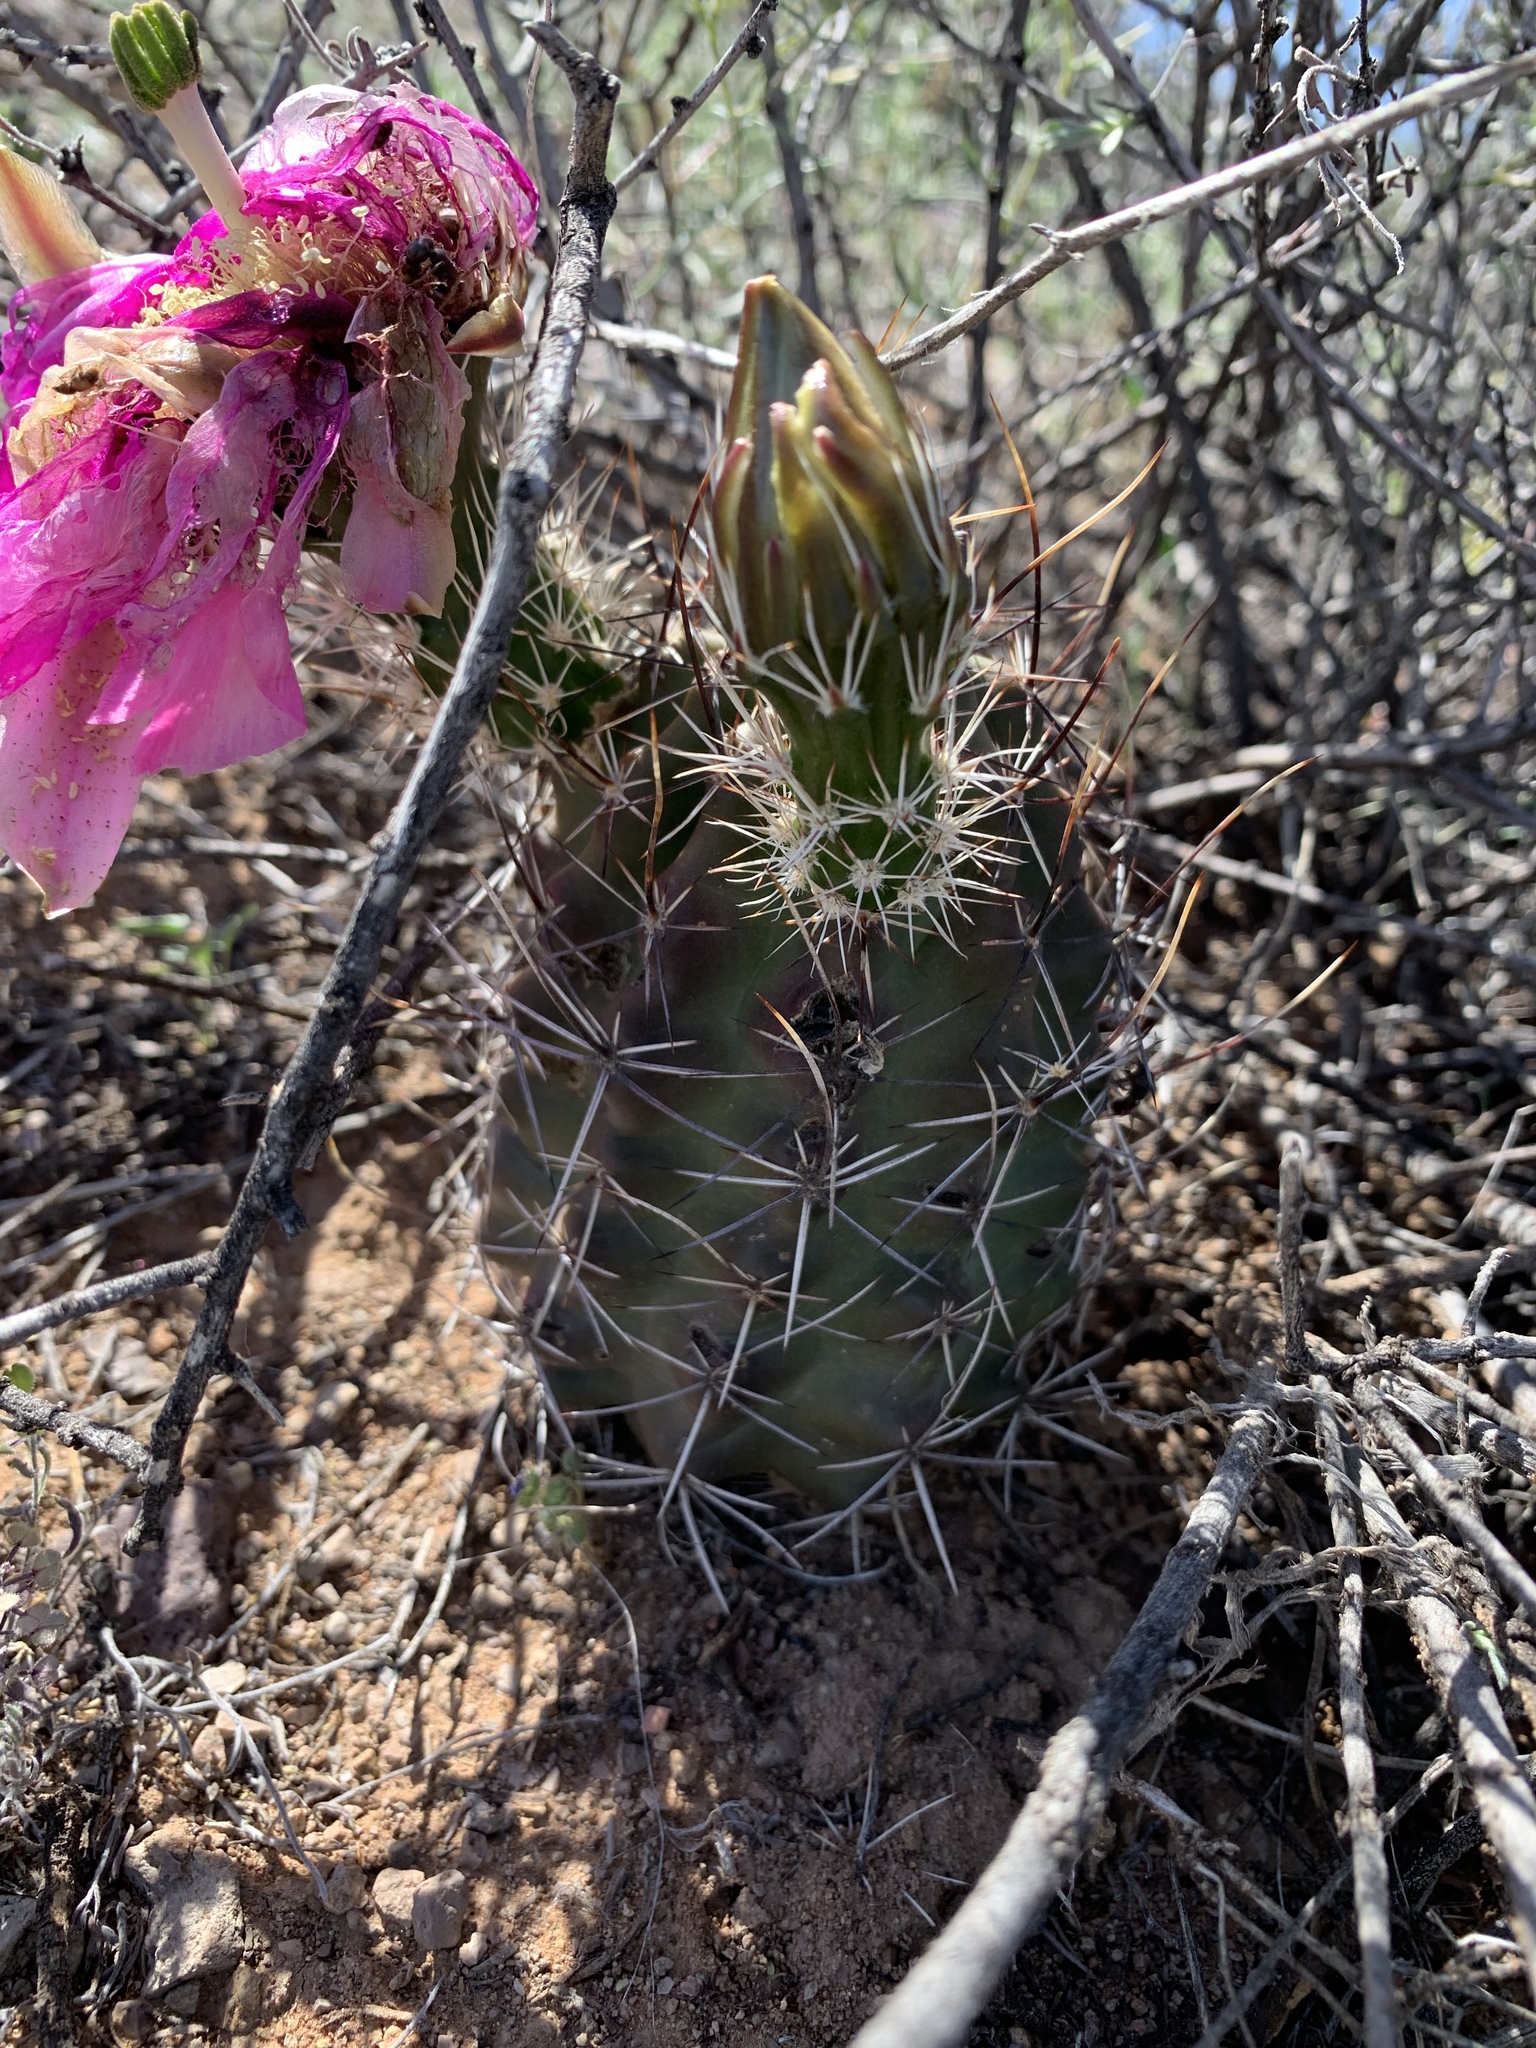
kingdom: Plantae
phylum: Tracheophyta
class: Magnoliopsida
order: Caryophyllales
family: Cactaceae
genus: Echinocereus
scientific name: Echinocereus fendleri
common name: Fendler's hedgehog cactus
